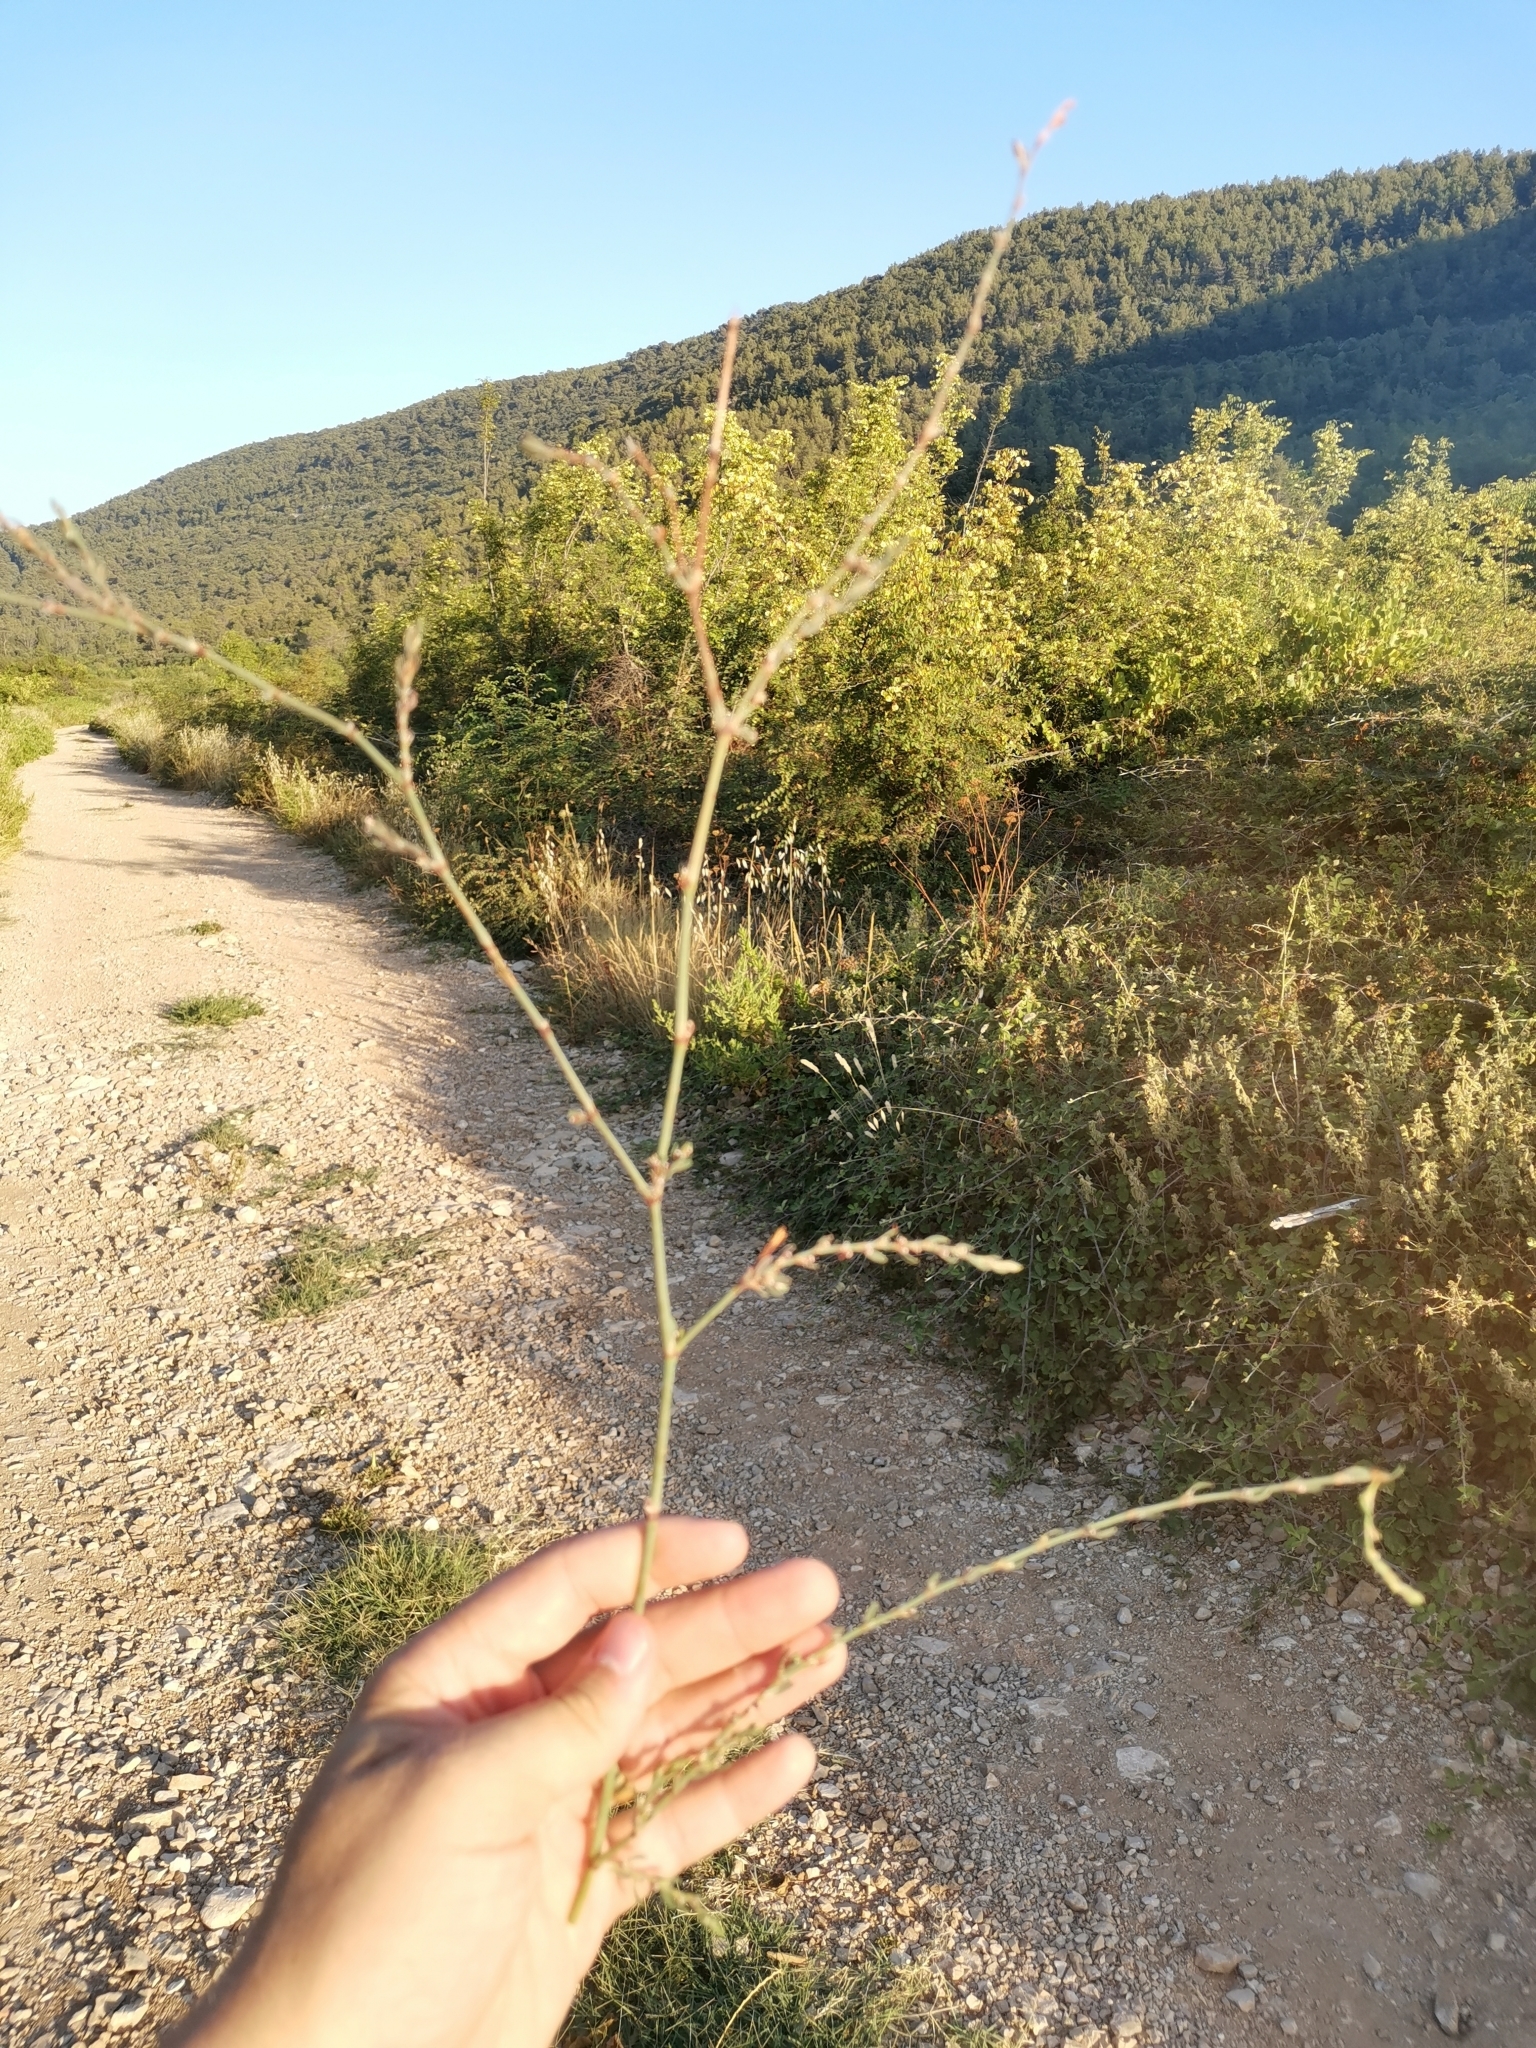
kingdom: Plantae
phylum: Tracheophyta
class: Magnoliopsida
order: Caryophyllales
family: Polygonaceae
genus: Polygonum
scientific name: Polygonum aviculare
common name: Prostrate knotweed
